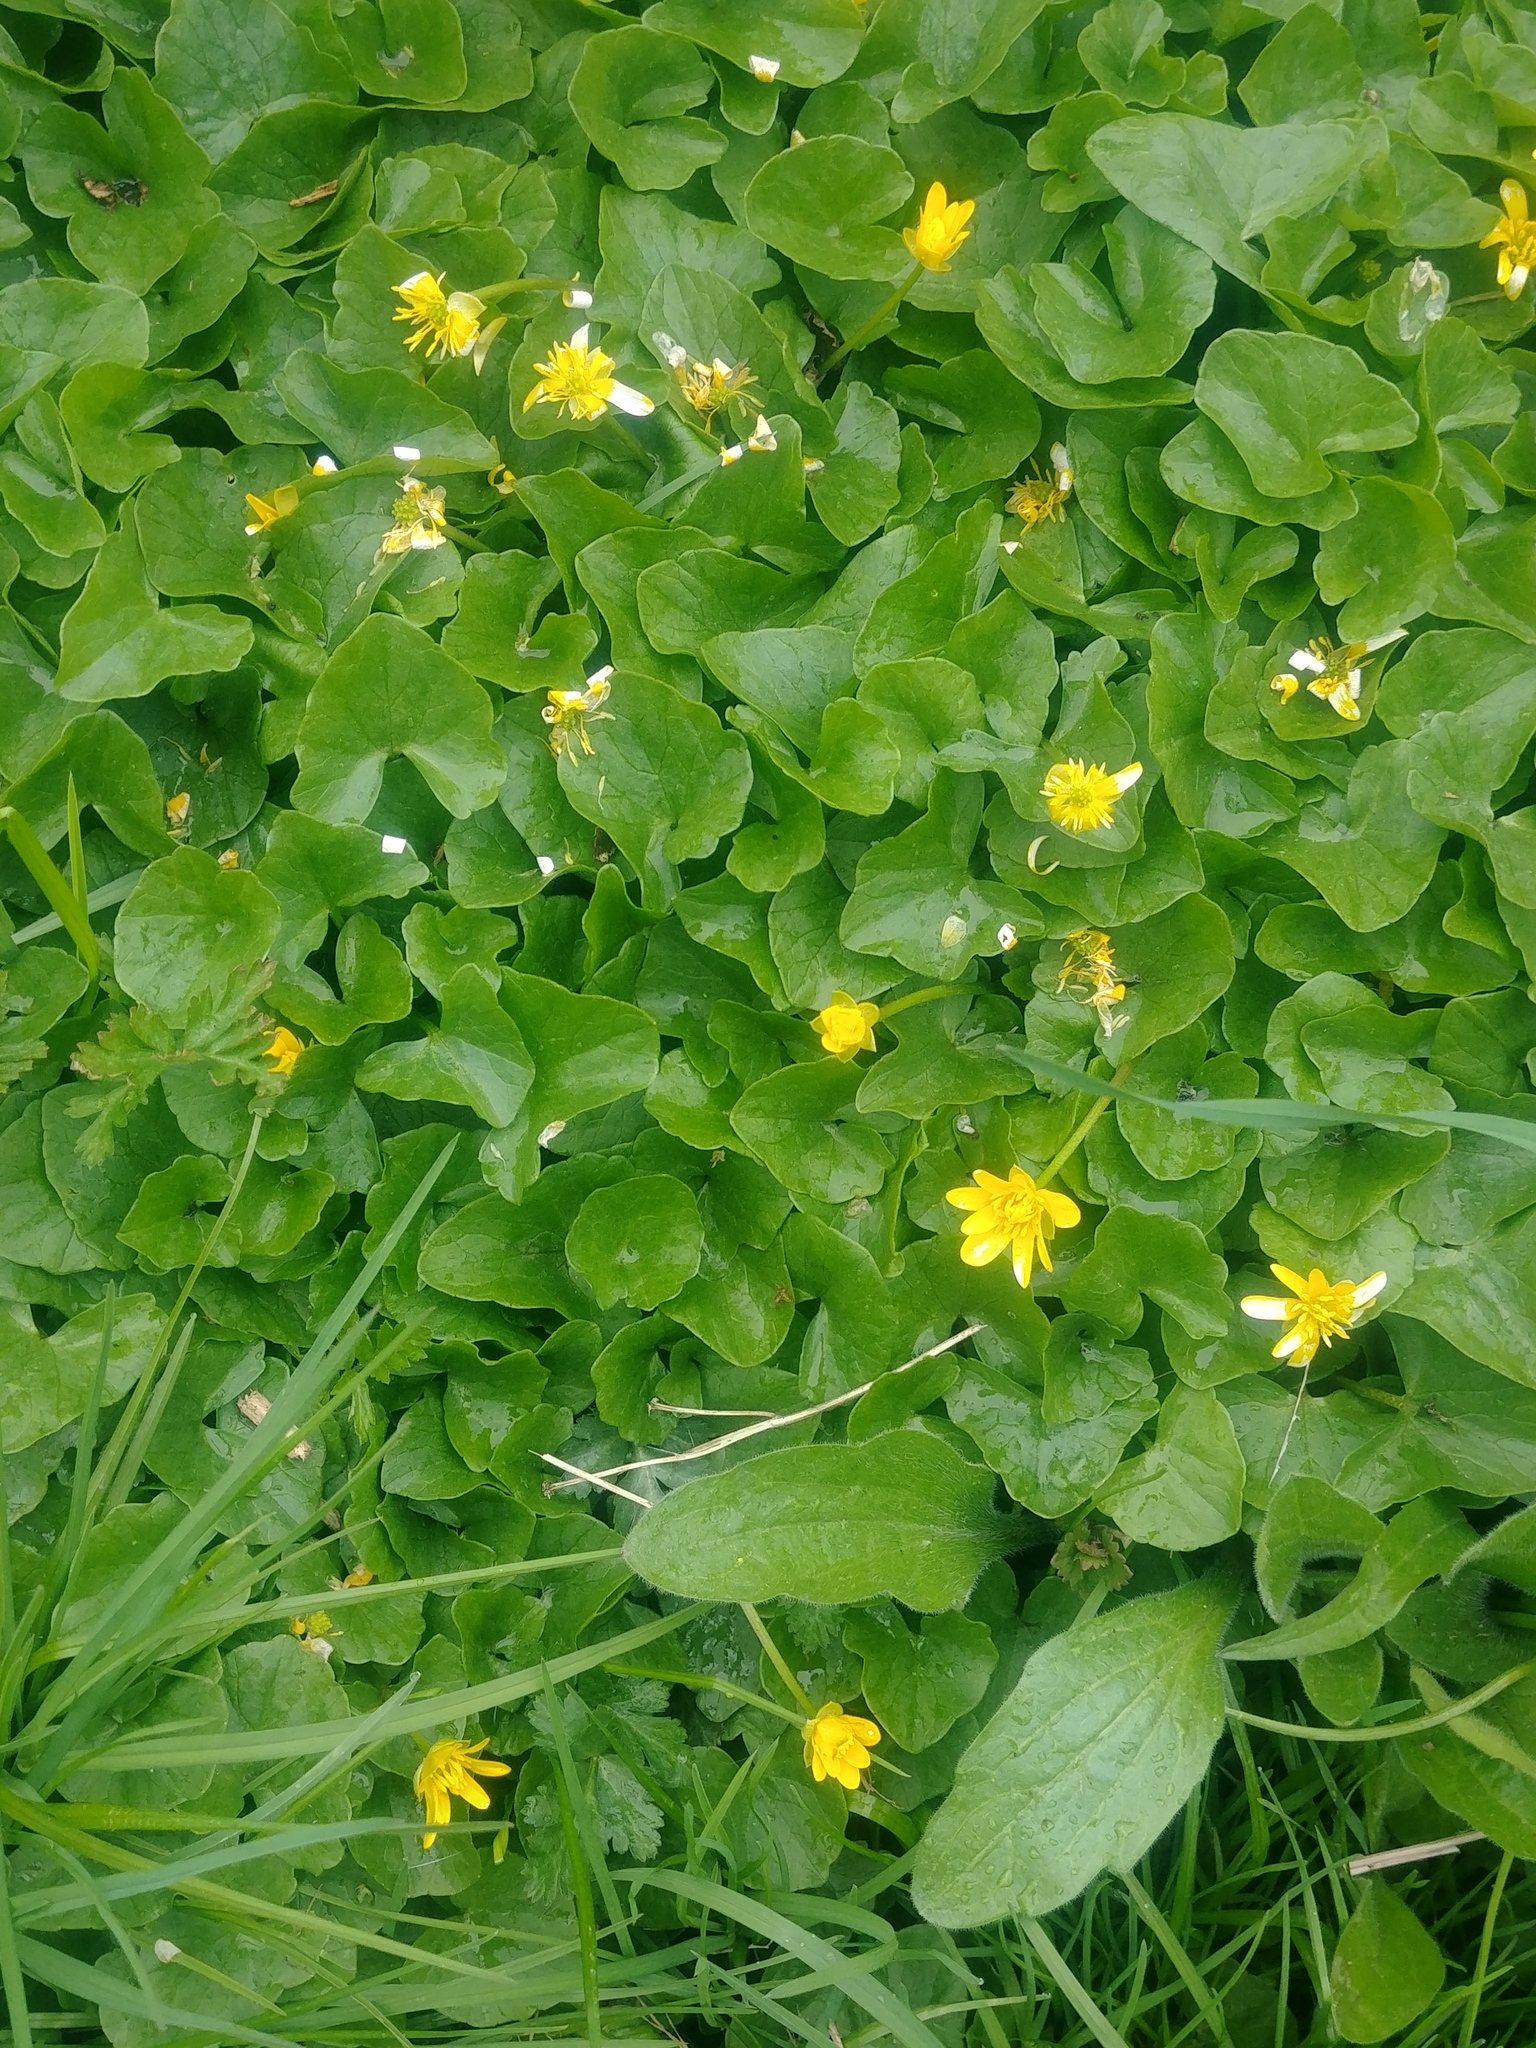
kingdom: Plantae
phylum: Tracheophyta
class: Magnoliopsida
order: Ranunculales
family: Ranunculaceae
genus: Ficaria
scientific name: Ficaria verna
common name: Lesser celandine
